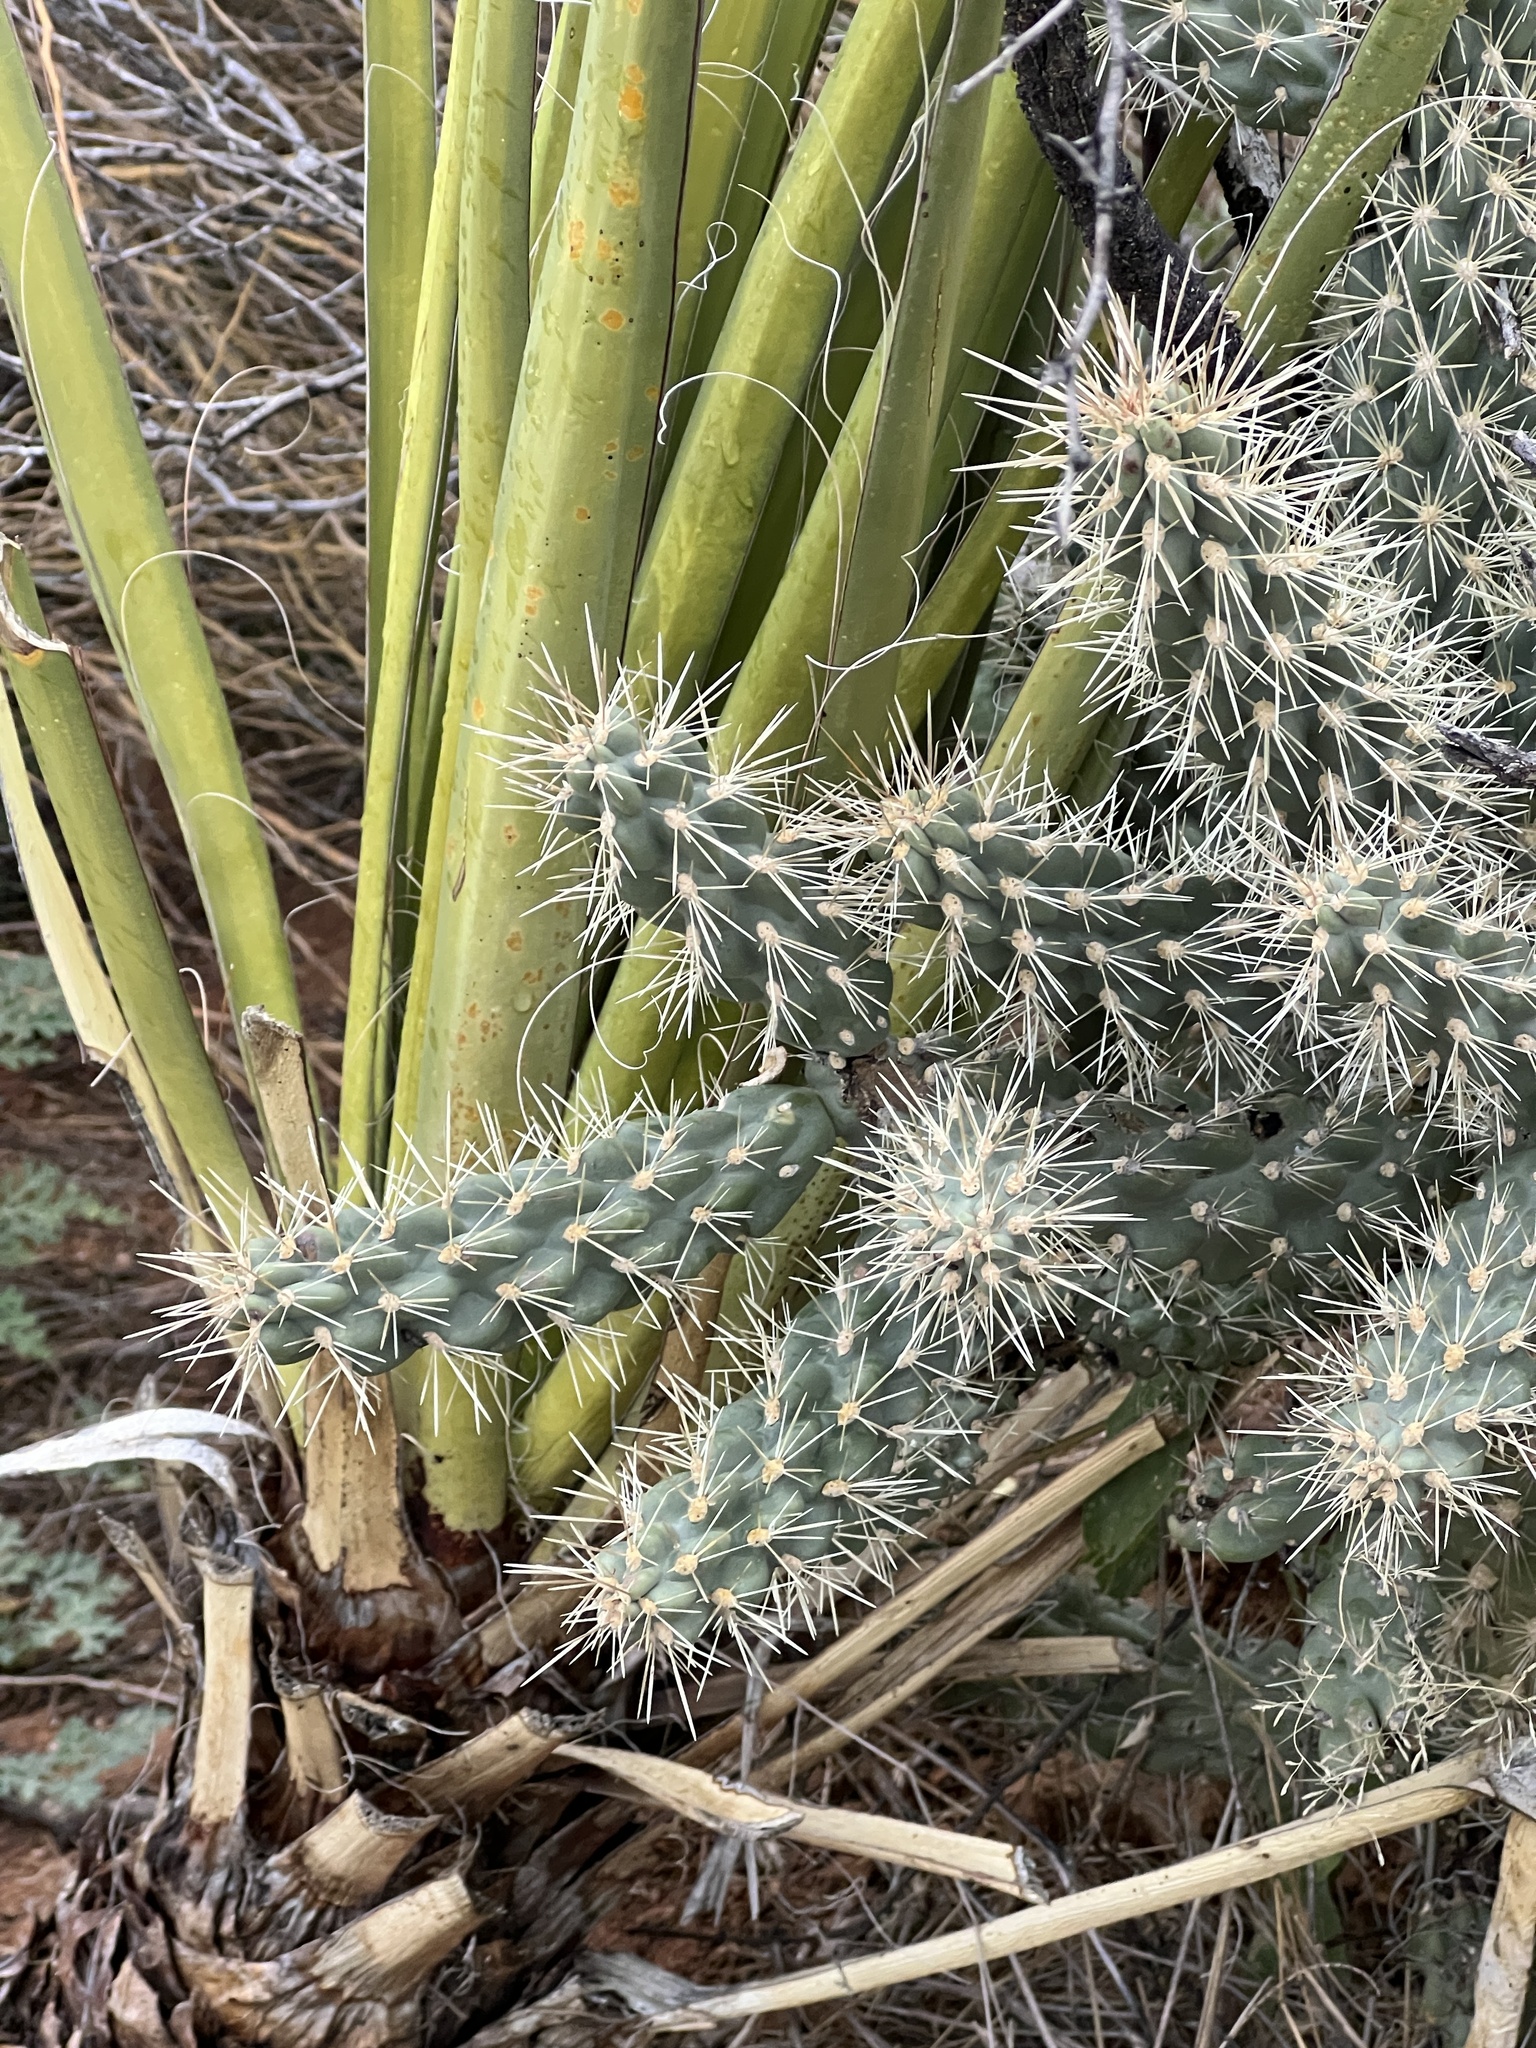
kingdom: Plantae
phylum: Tracheophyta
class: Magnoliopsida
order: Caryophyllales
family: Cactaceae
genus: Cylindropuntia
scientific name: Cylindropuntia fulgida
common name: Jumping cholla
